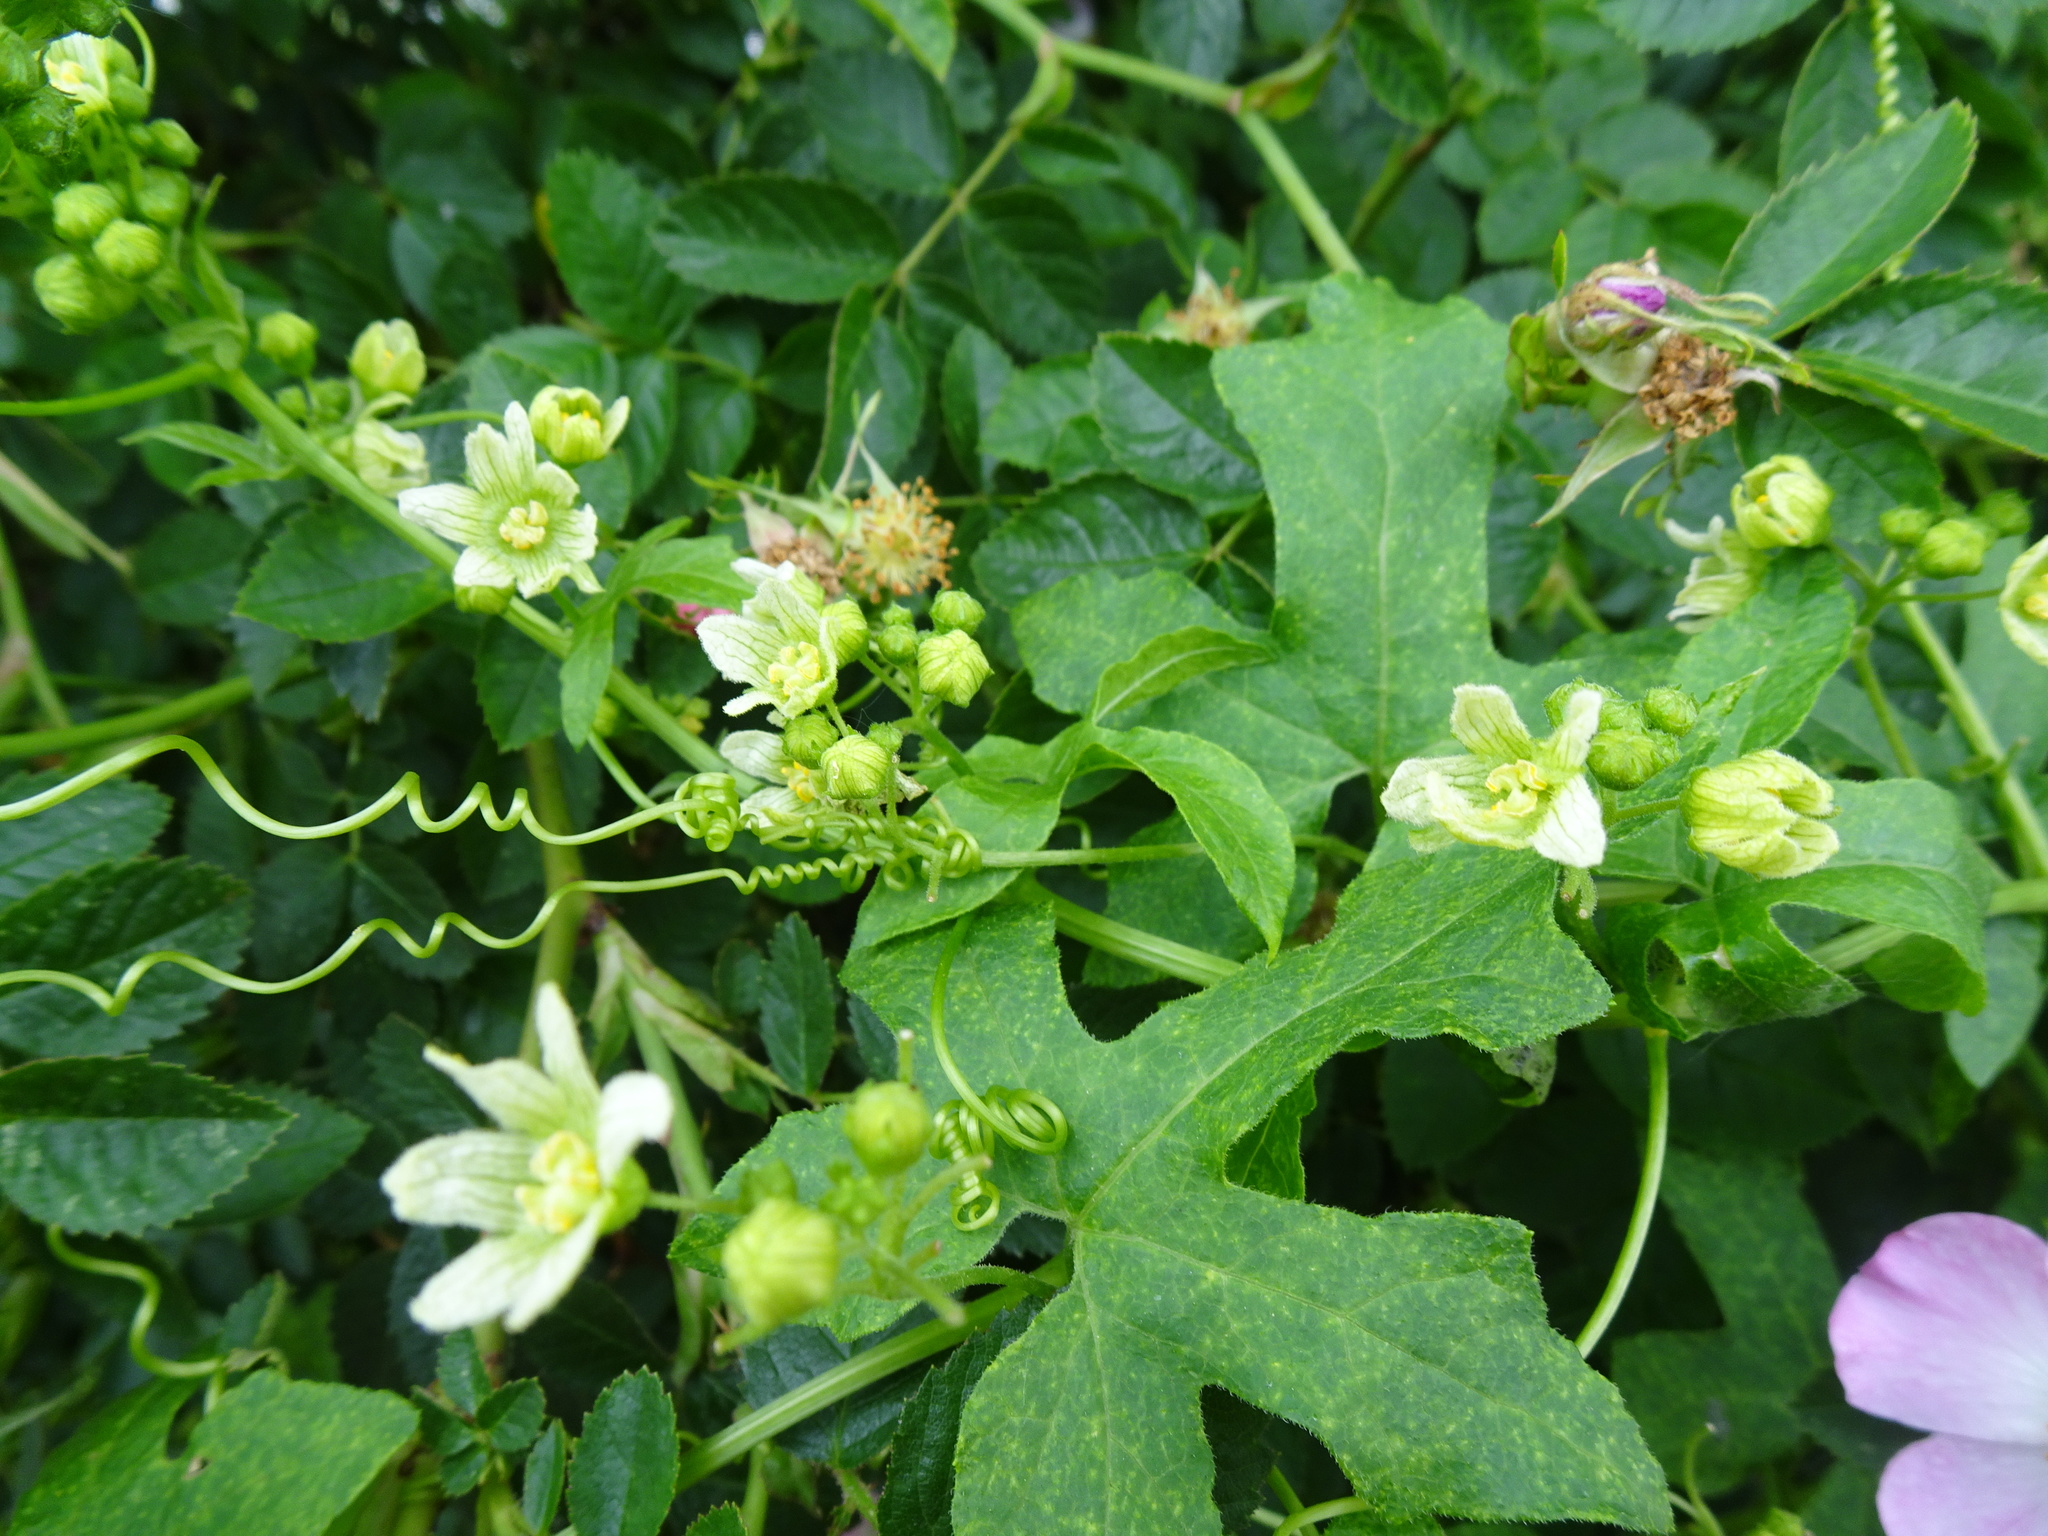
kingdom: Plantae
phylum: Tracheophyta
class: Magnoliopsida
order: Cucurbitales
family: Cucurbitaceae
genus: Bryonia
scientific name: Bryonia cretica
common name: Cretan bryony
